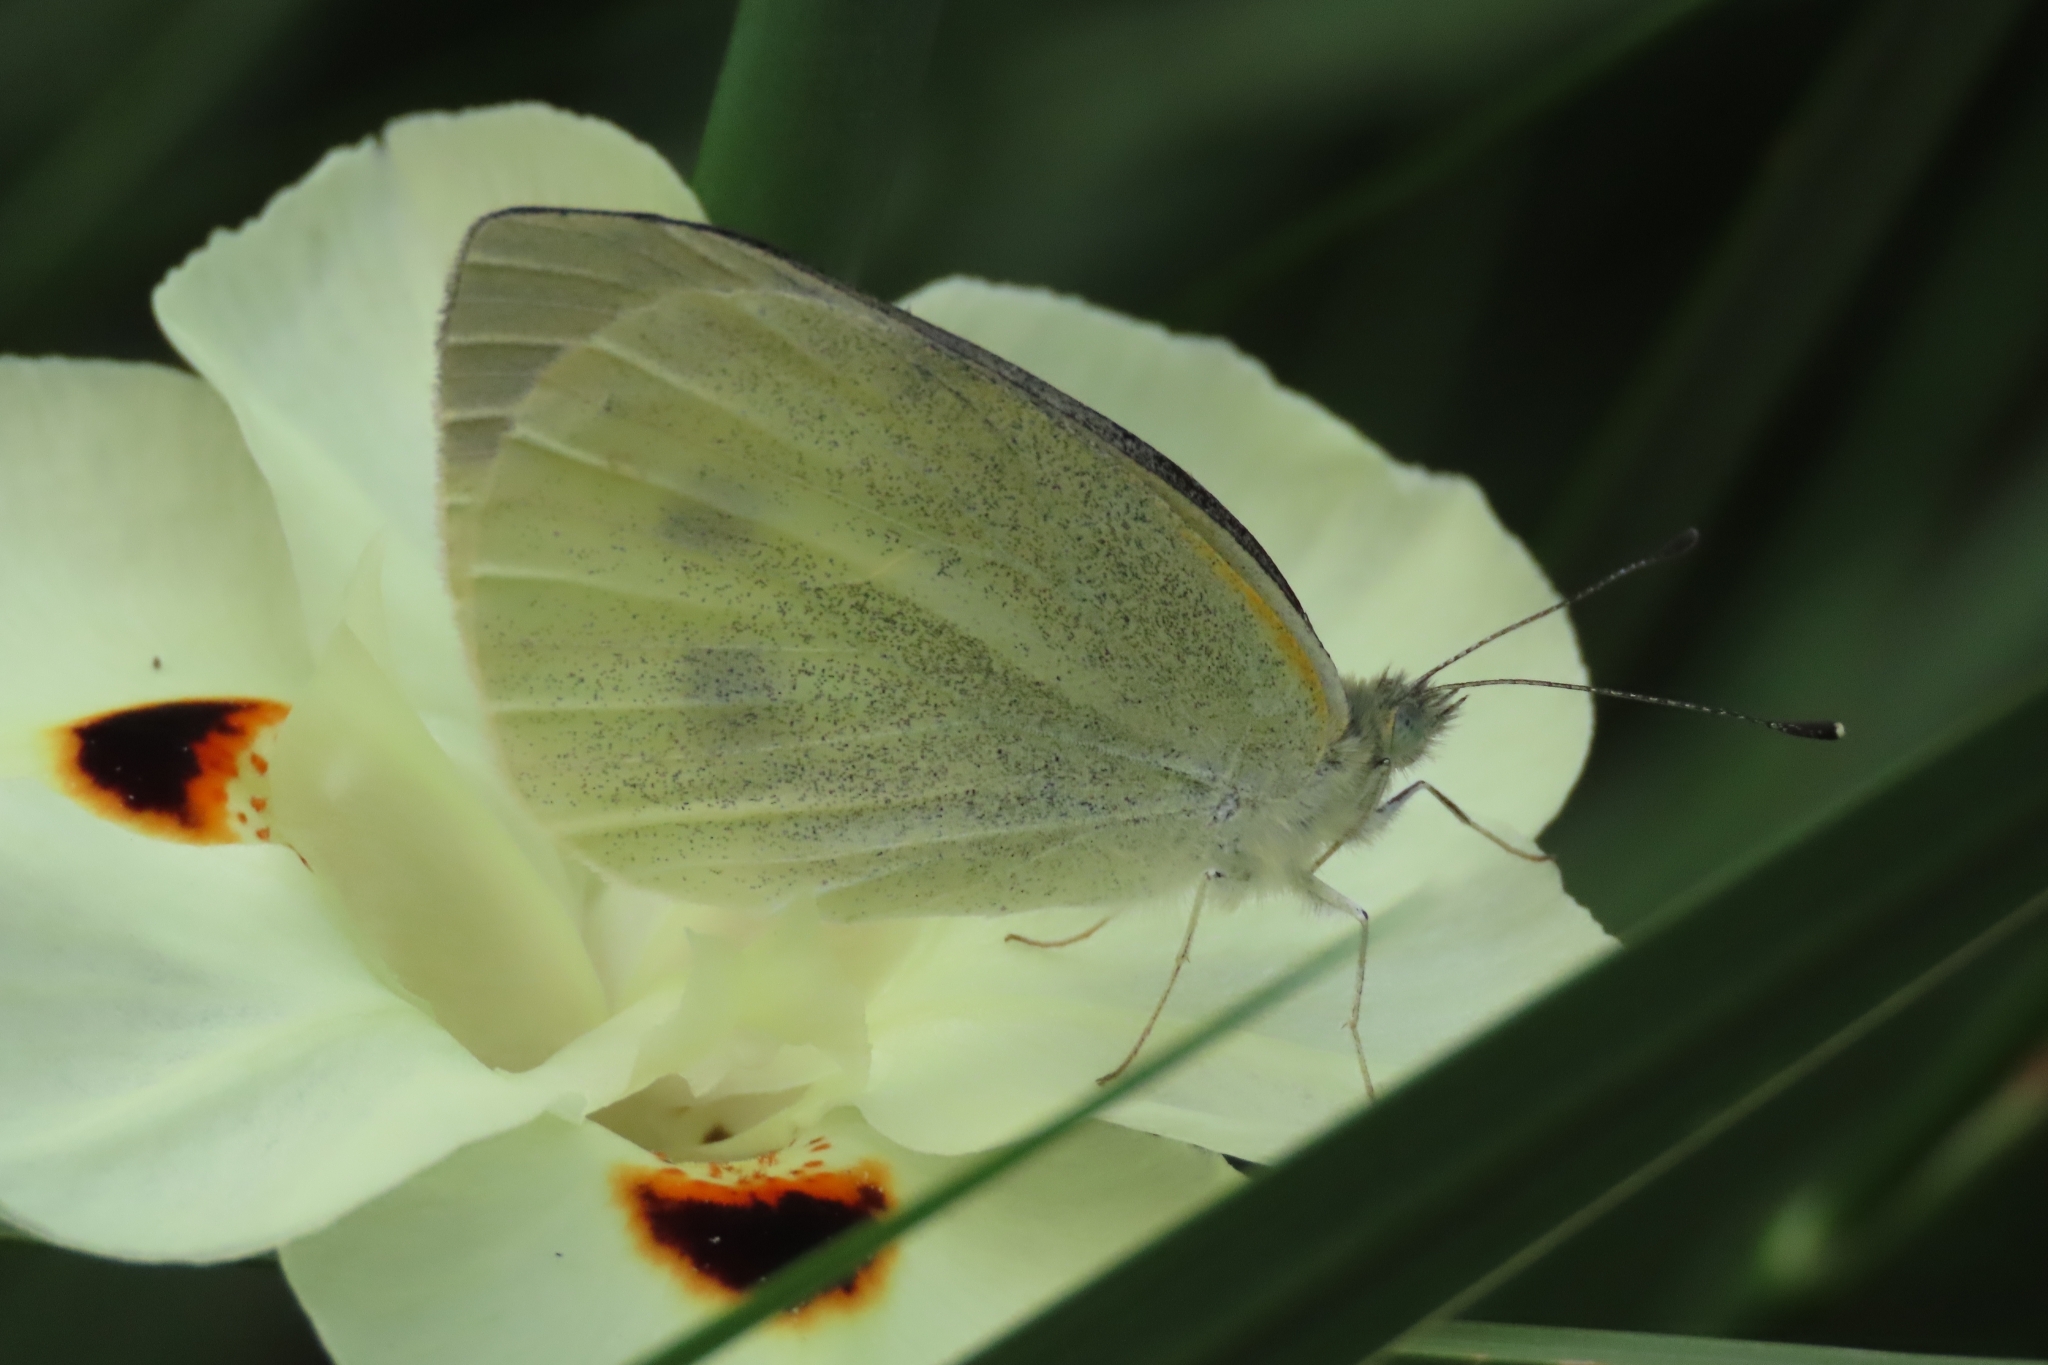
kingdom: Animalia
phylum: Arthropoda
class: Insecta
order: Lepidoptera
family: Pieridae
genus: Pieris
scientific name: Pieris rapae
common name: Small white
